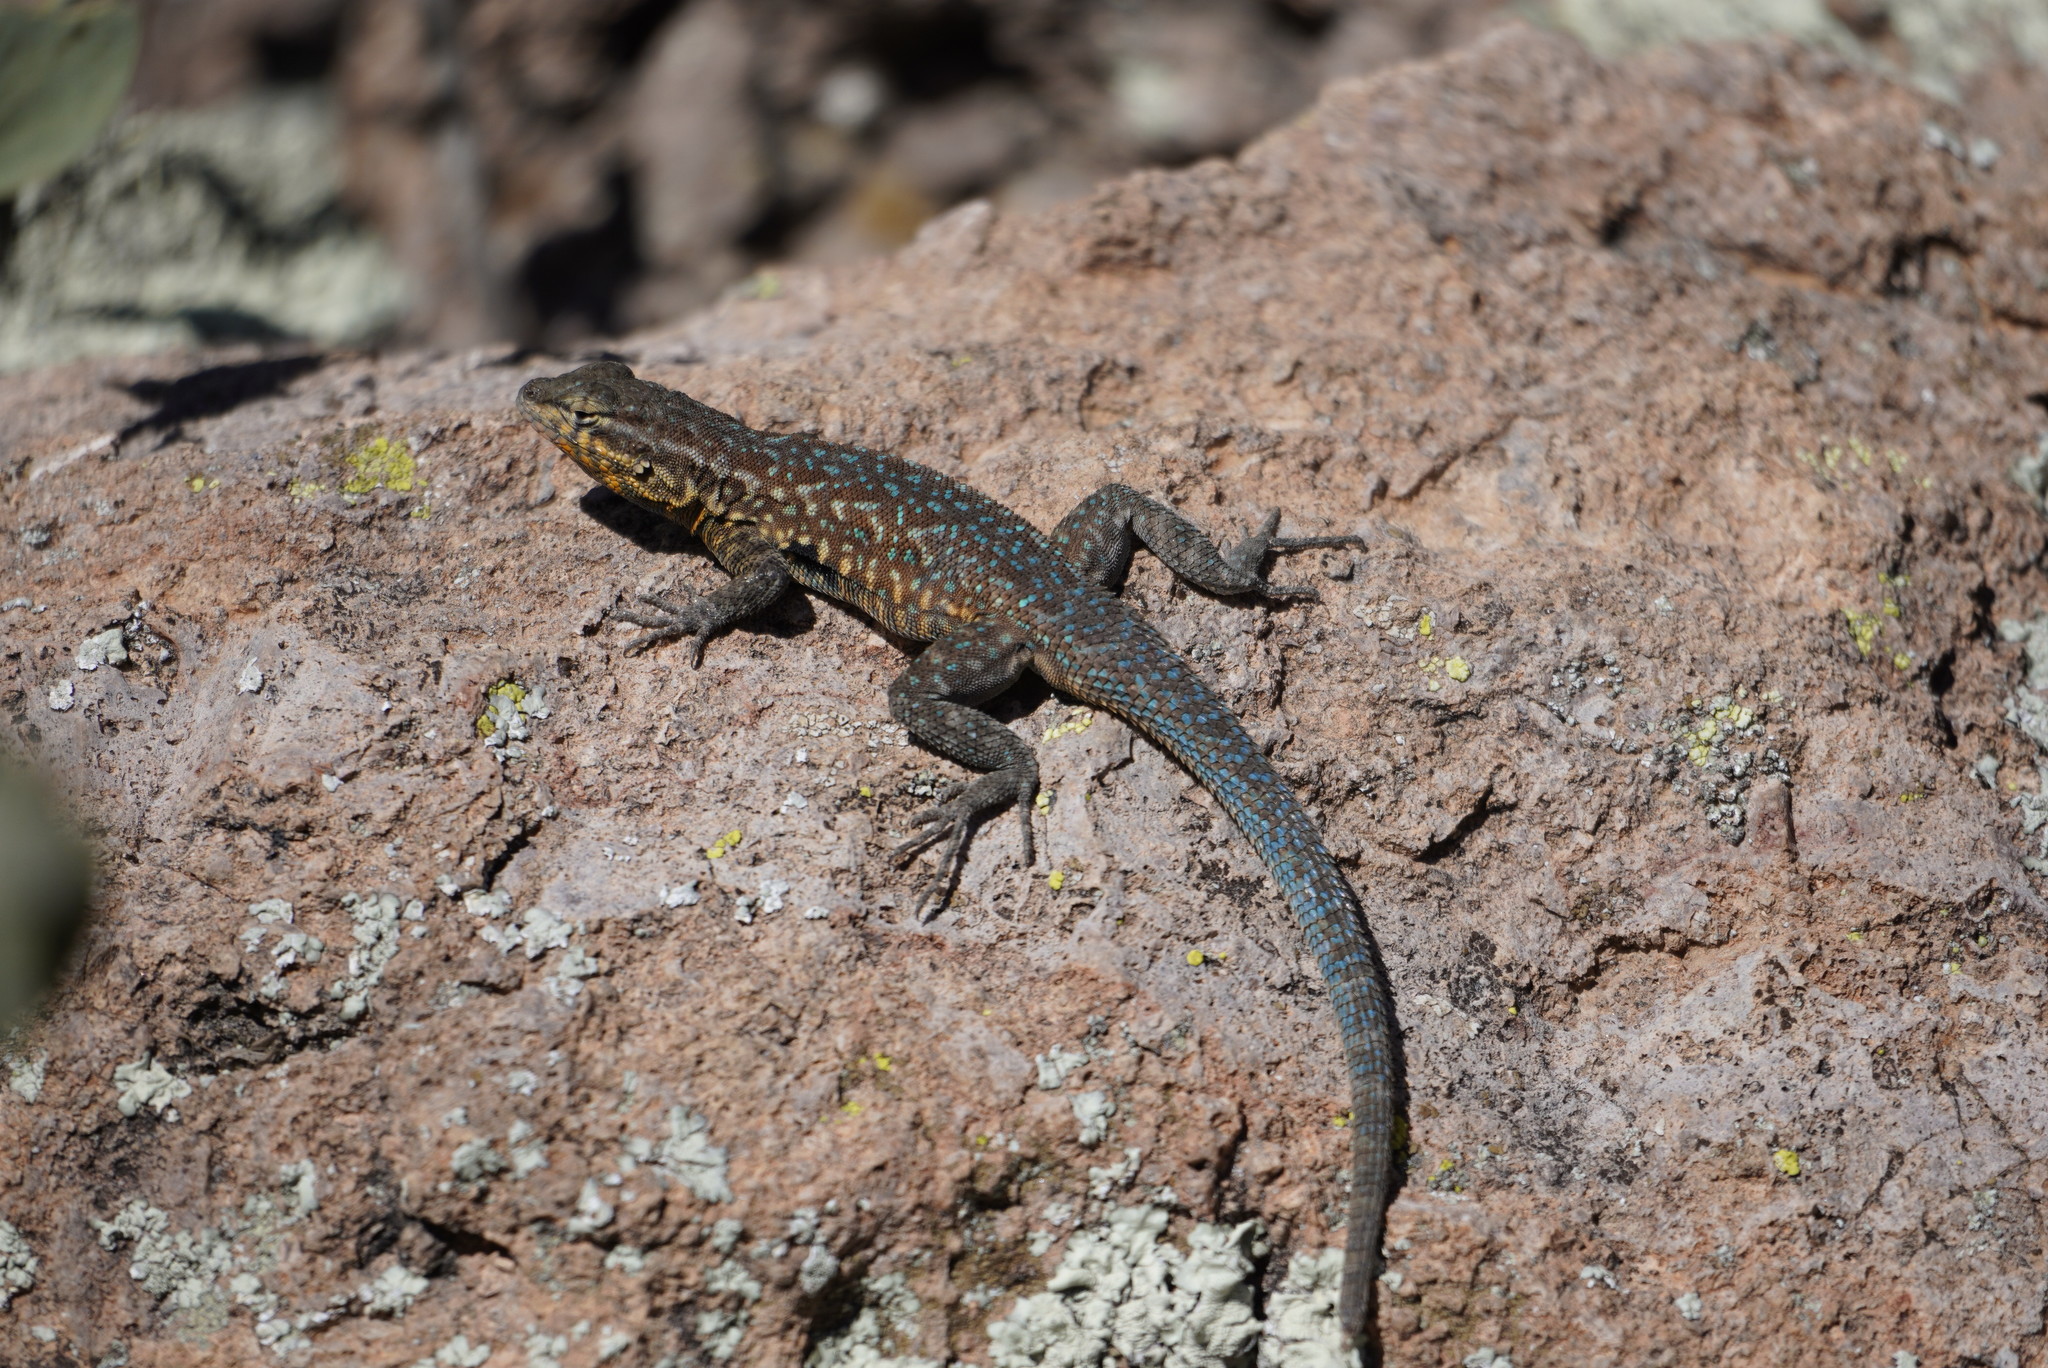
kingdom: Animalia
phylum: Chordata
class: Squamata
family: Phrynosomatidae
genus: Uta
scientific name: Uta stansburiana
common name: Side-blotched lizard
